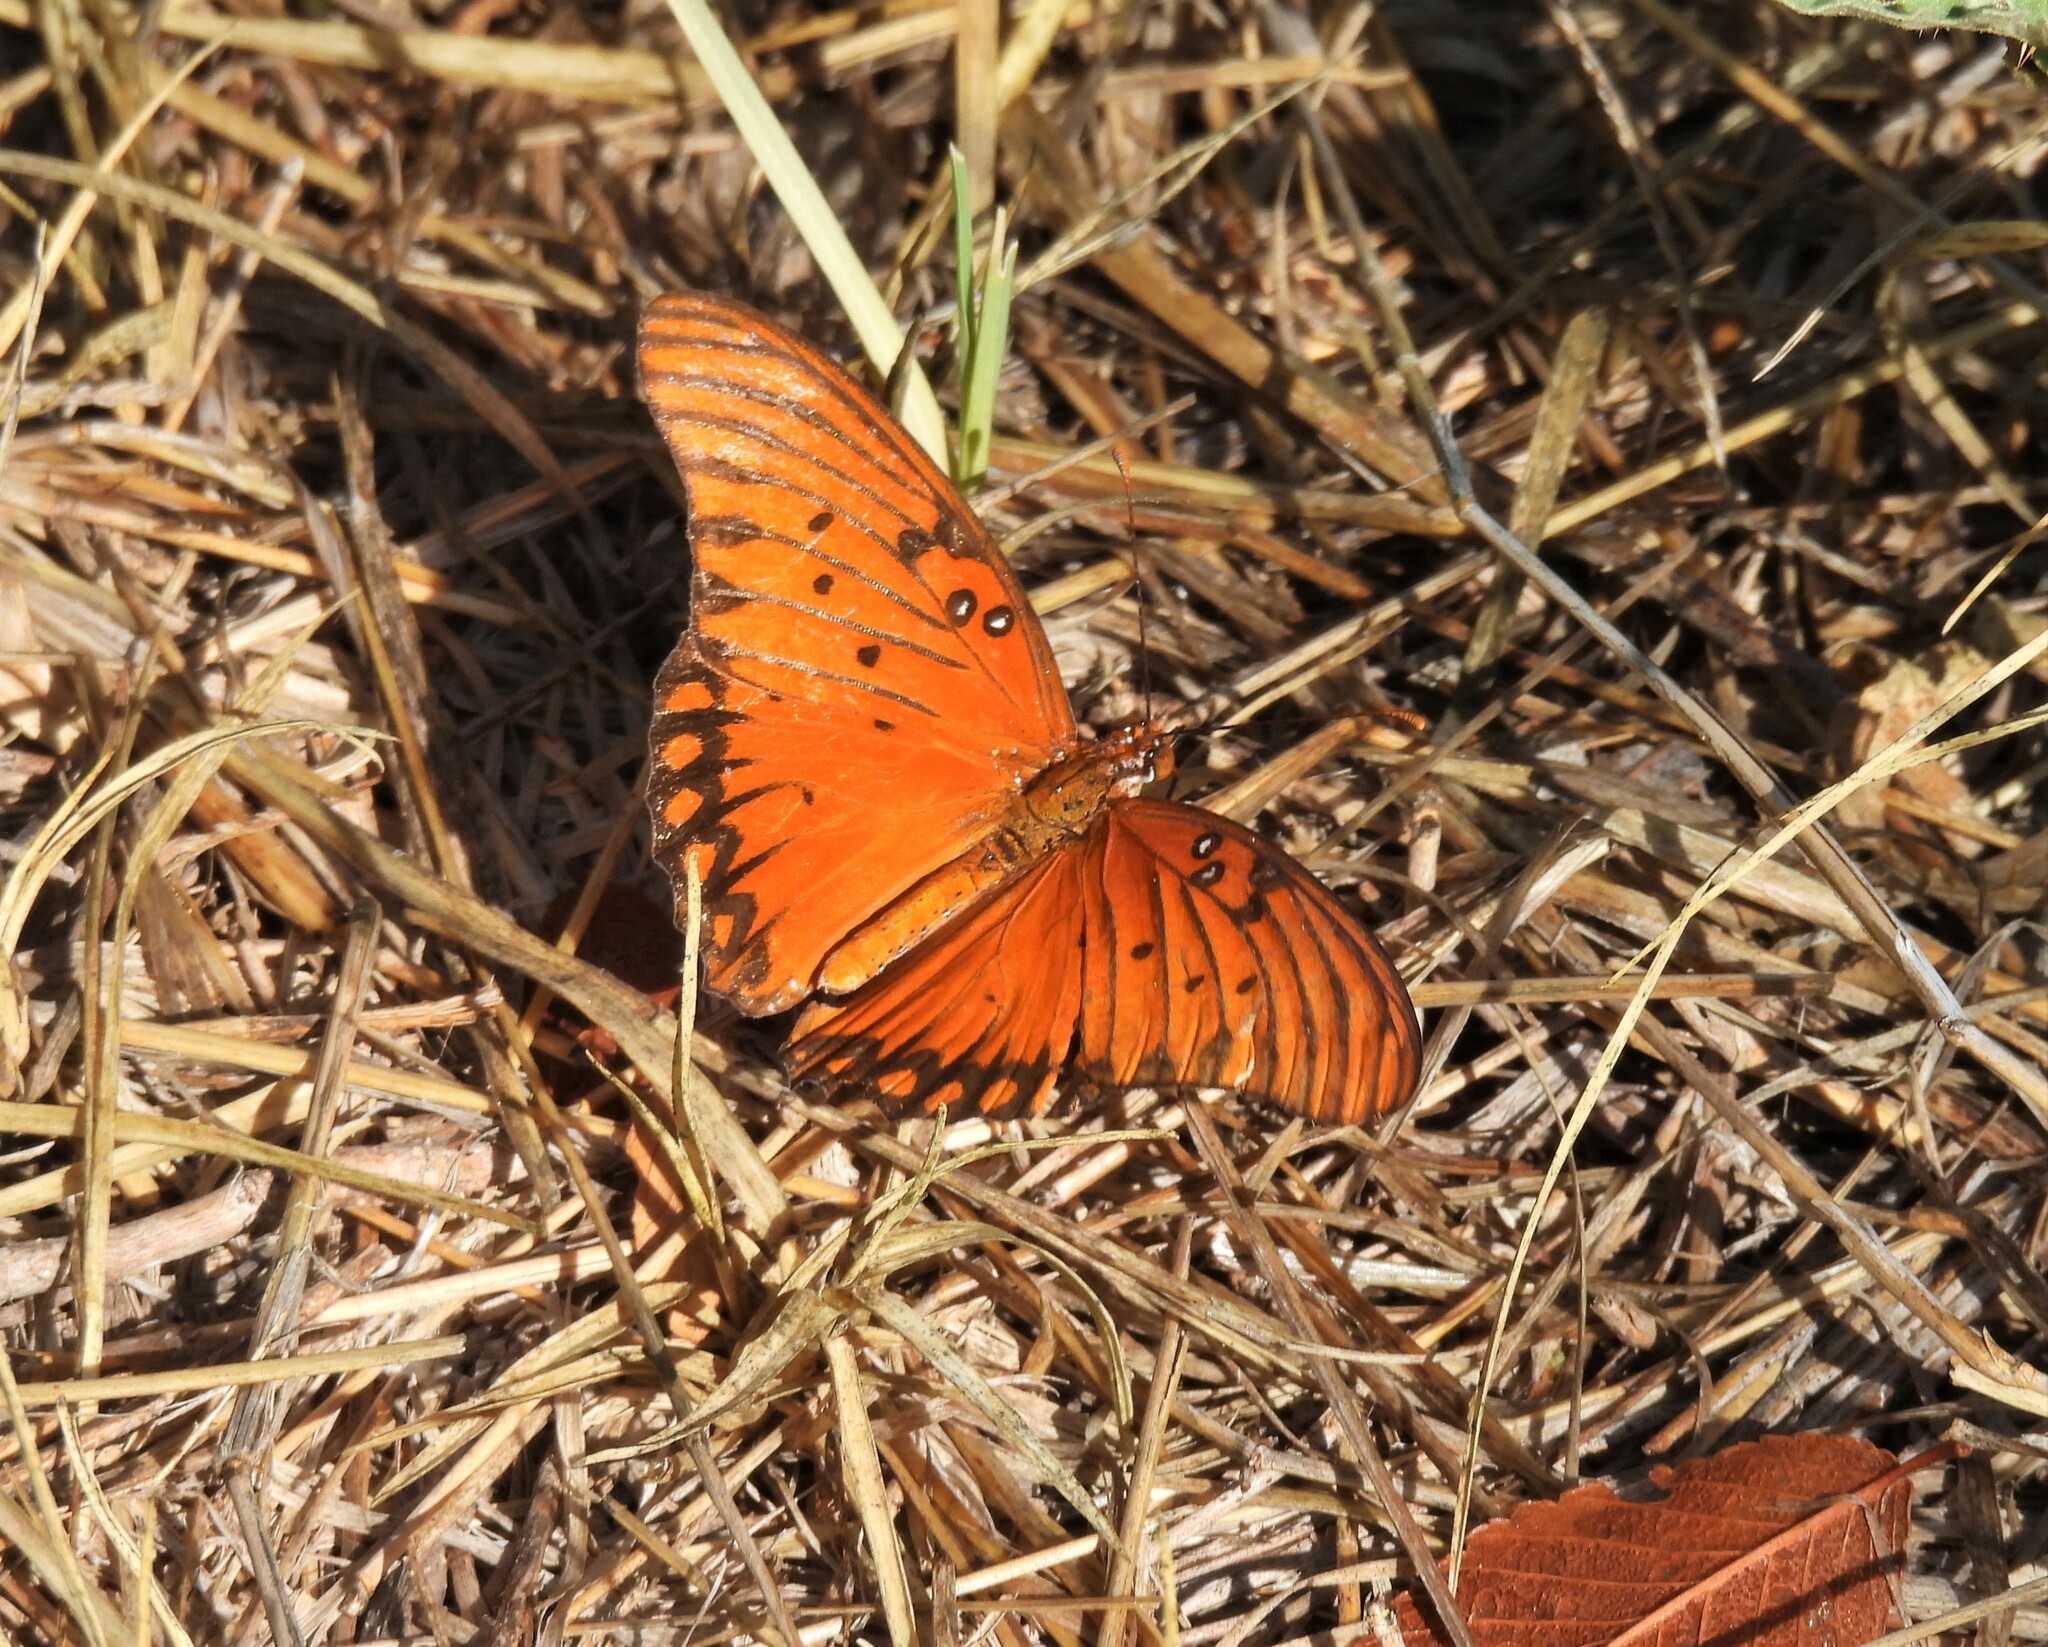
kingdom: Animalia
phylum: Arthropoda
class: Insecta
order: Lepidoptera
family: Nymphalidae
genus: Dione
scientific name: Dione vanillae
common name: Gulf fritillary
